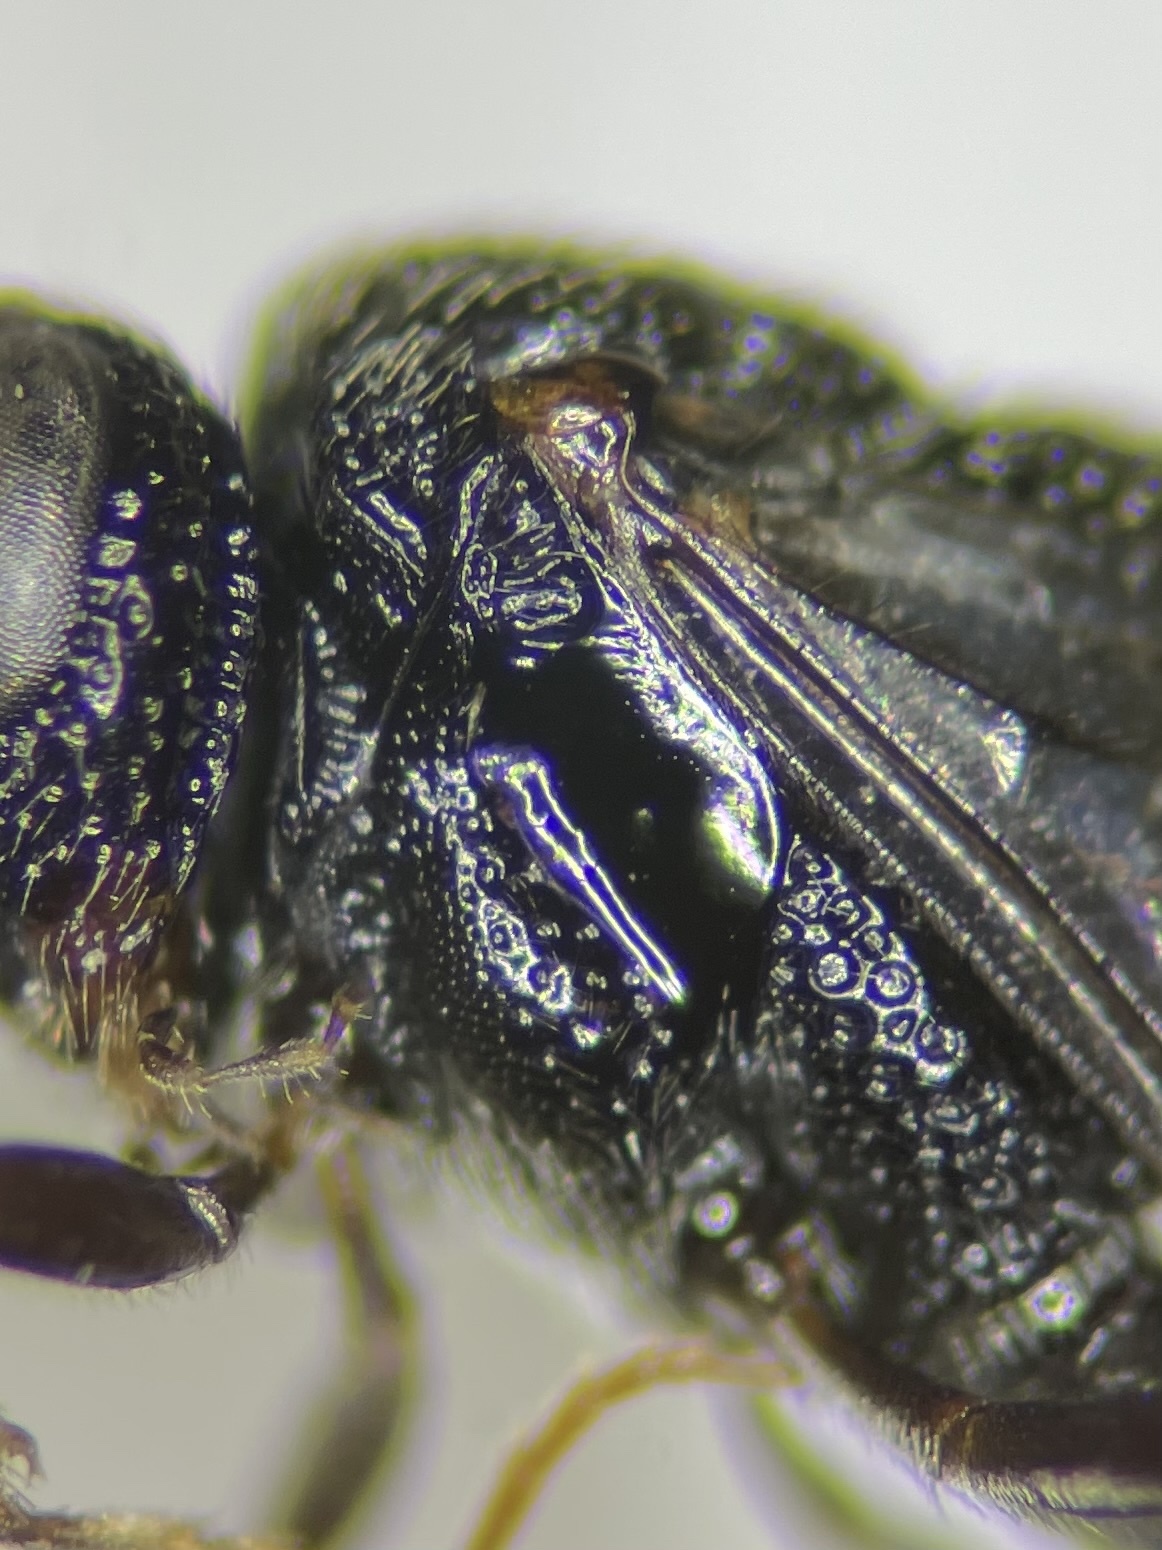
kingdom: Animalia
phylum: Arthropoda
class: Insecta
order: Hymenoptera
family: Evaniidae
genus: Hyptia
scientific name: Hyptia harpyoides
